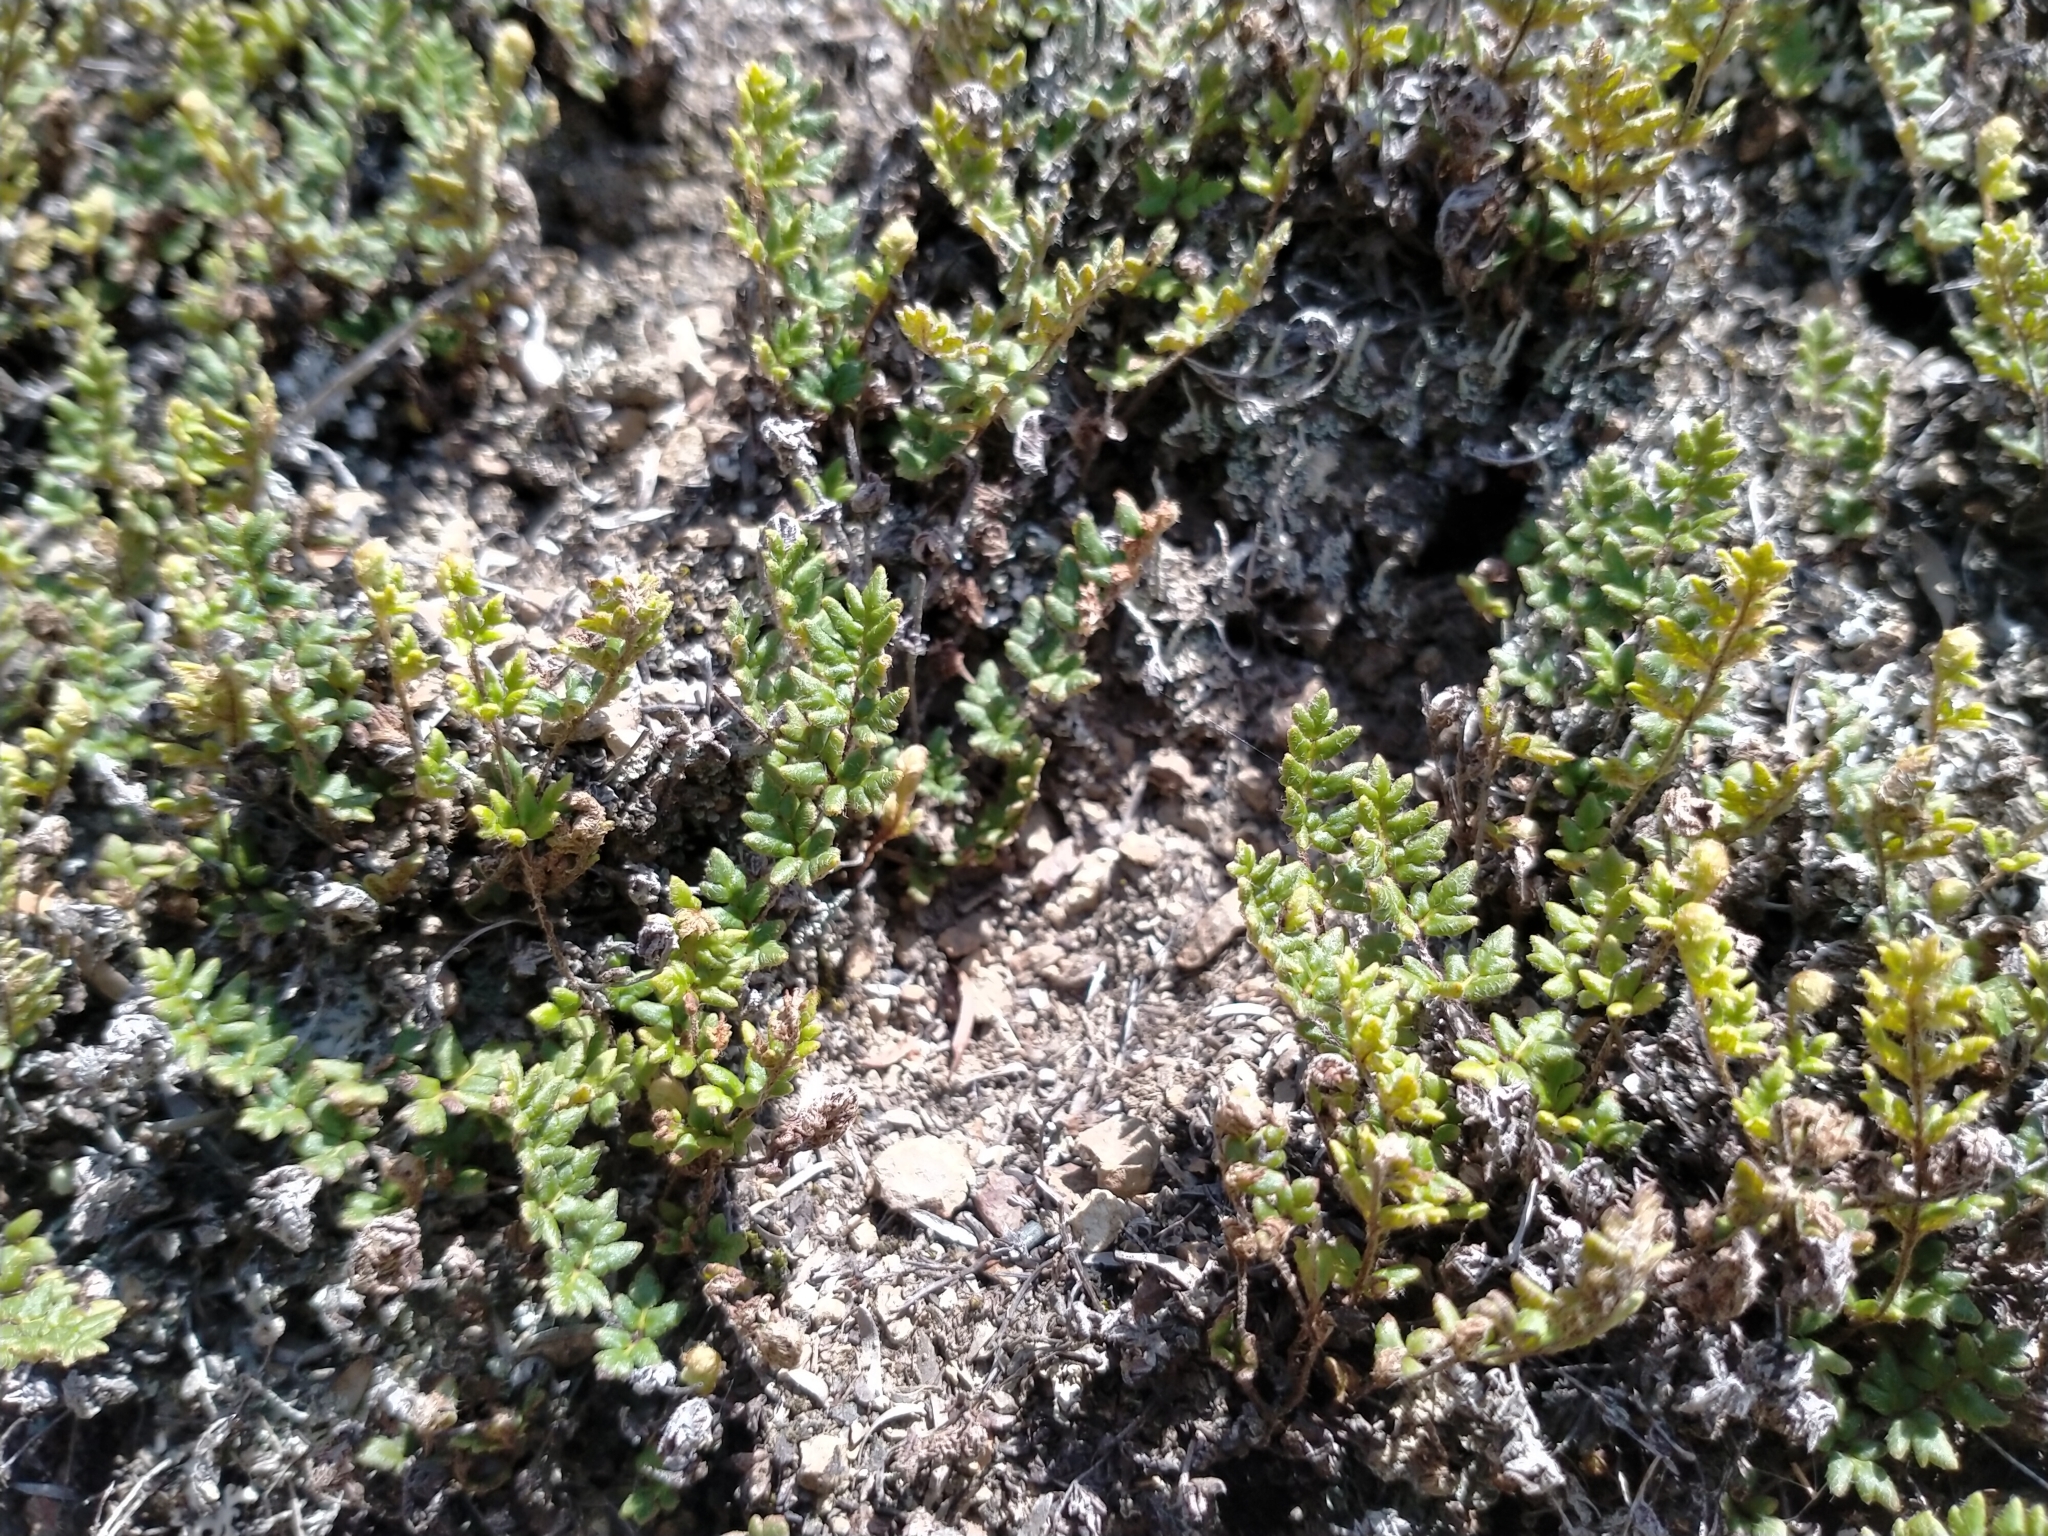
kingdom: Plantae
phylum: Tracheophyta
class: Polypodiopsida
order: Polypodiales
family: Pteridaceae
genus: Cheilanthes
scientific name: Cheilanthes distans
